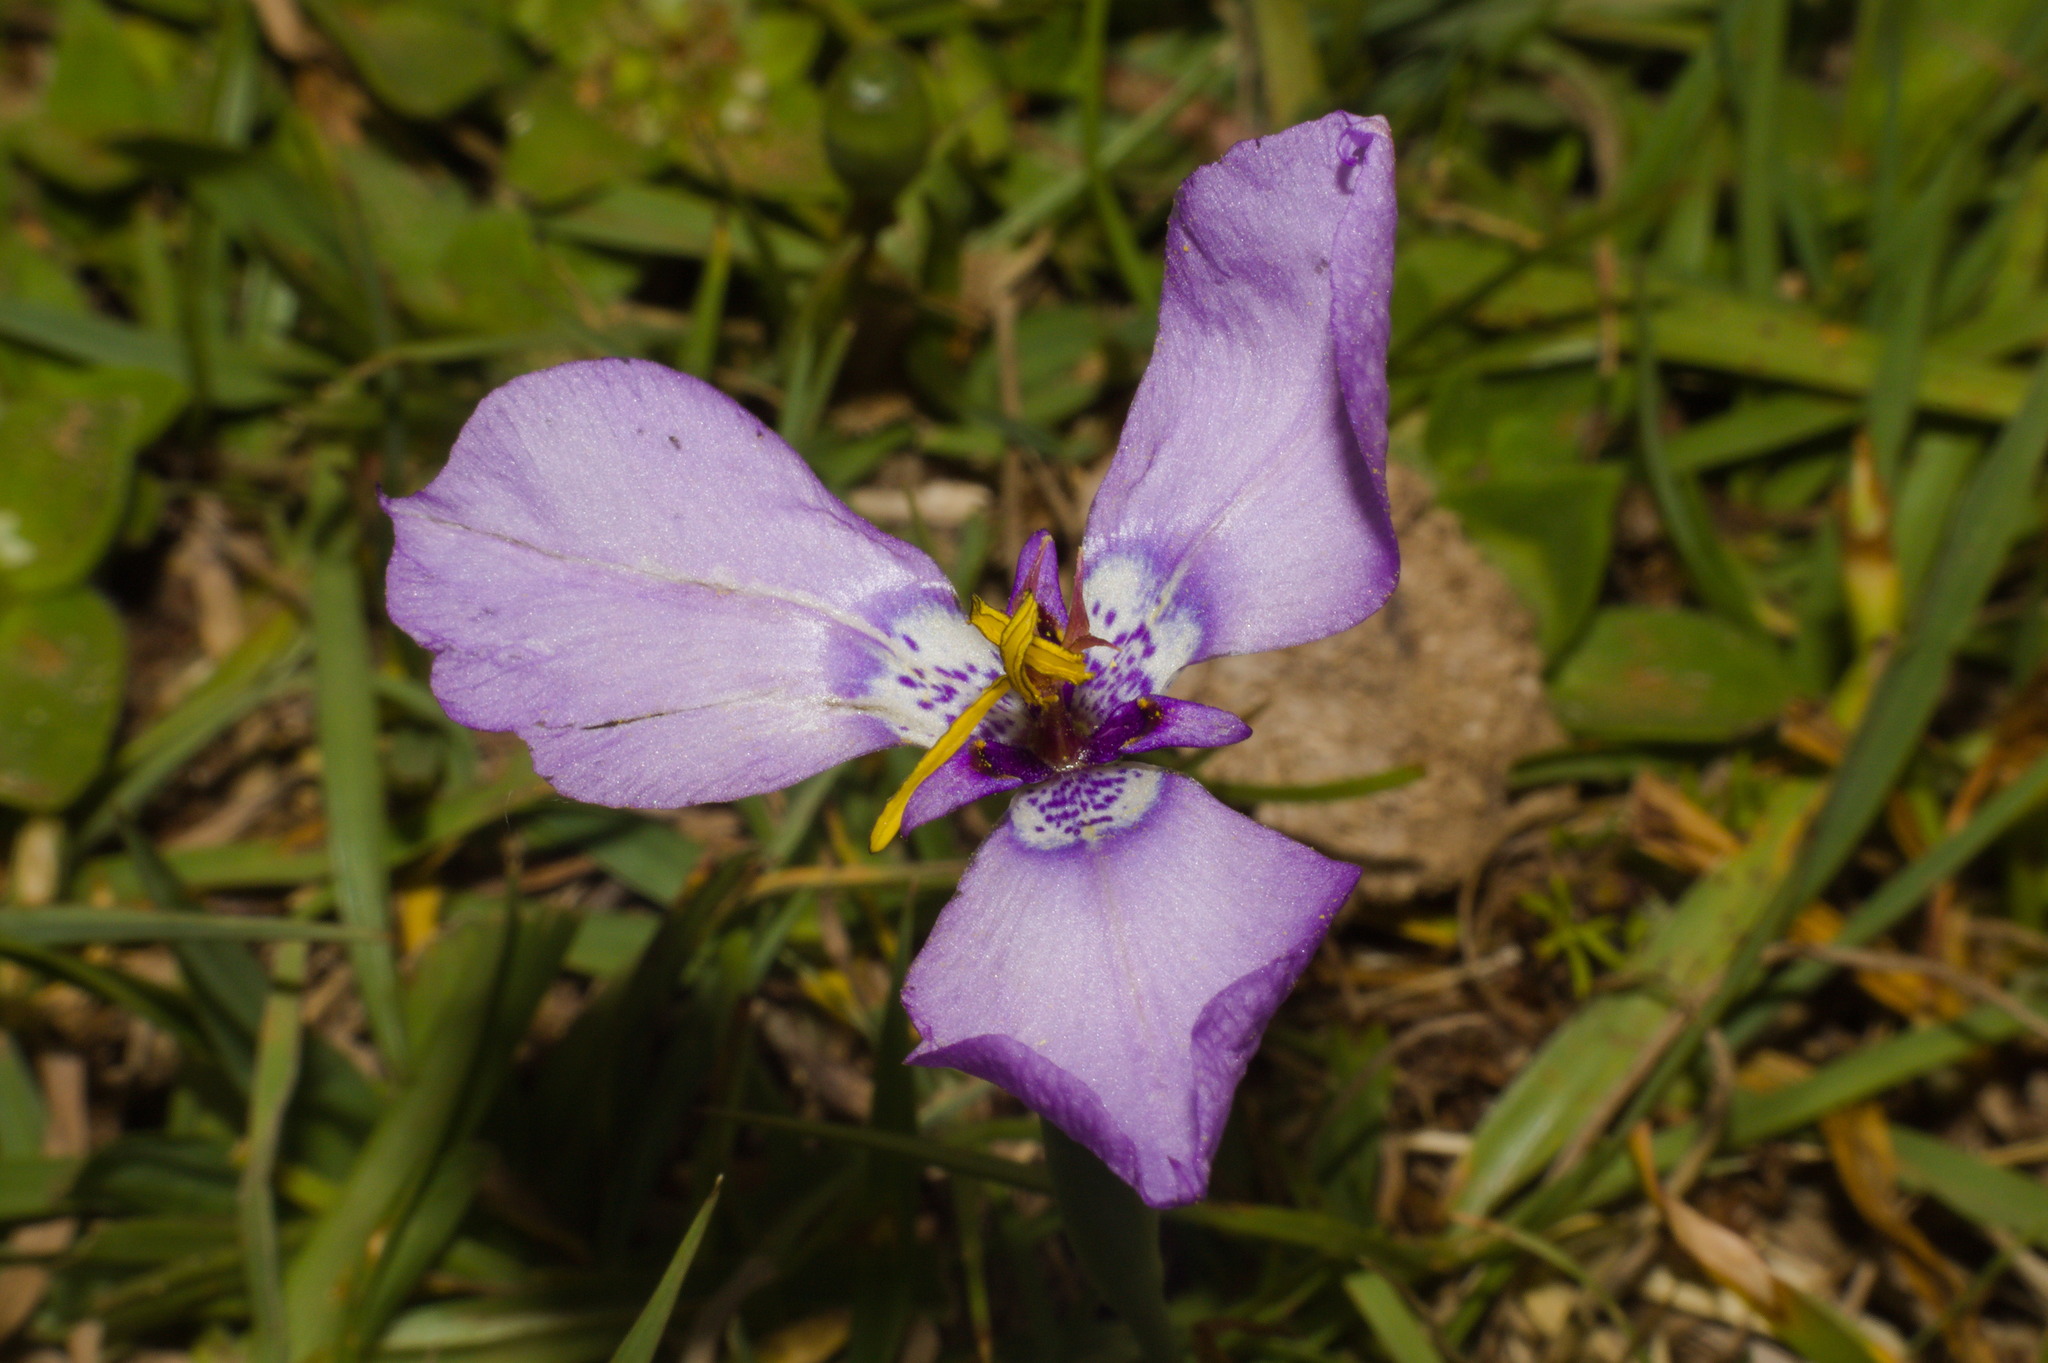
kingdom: Plantae
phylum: Tracheophyta
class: Liliopsida
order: Asparagales
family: Iridaceae
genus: Herbertia
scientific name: Herbertia lahue
